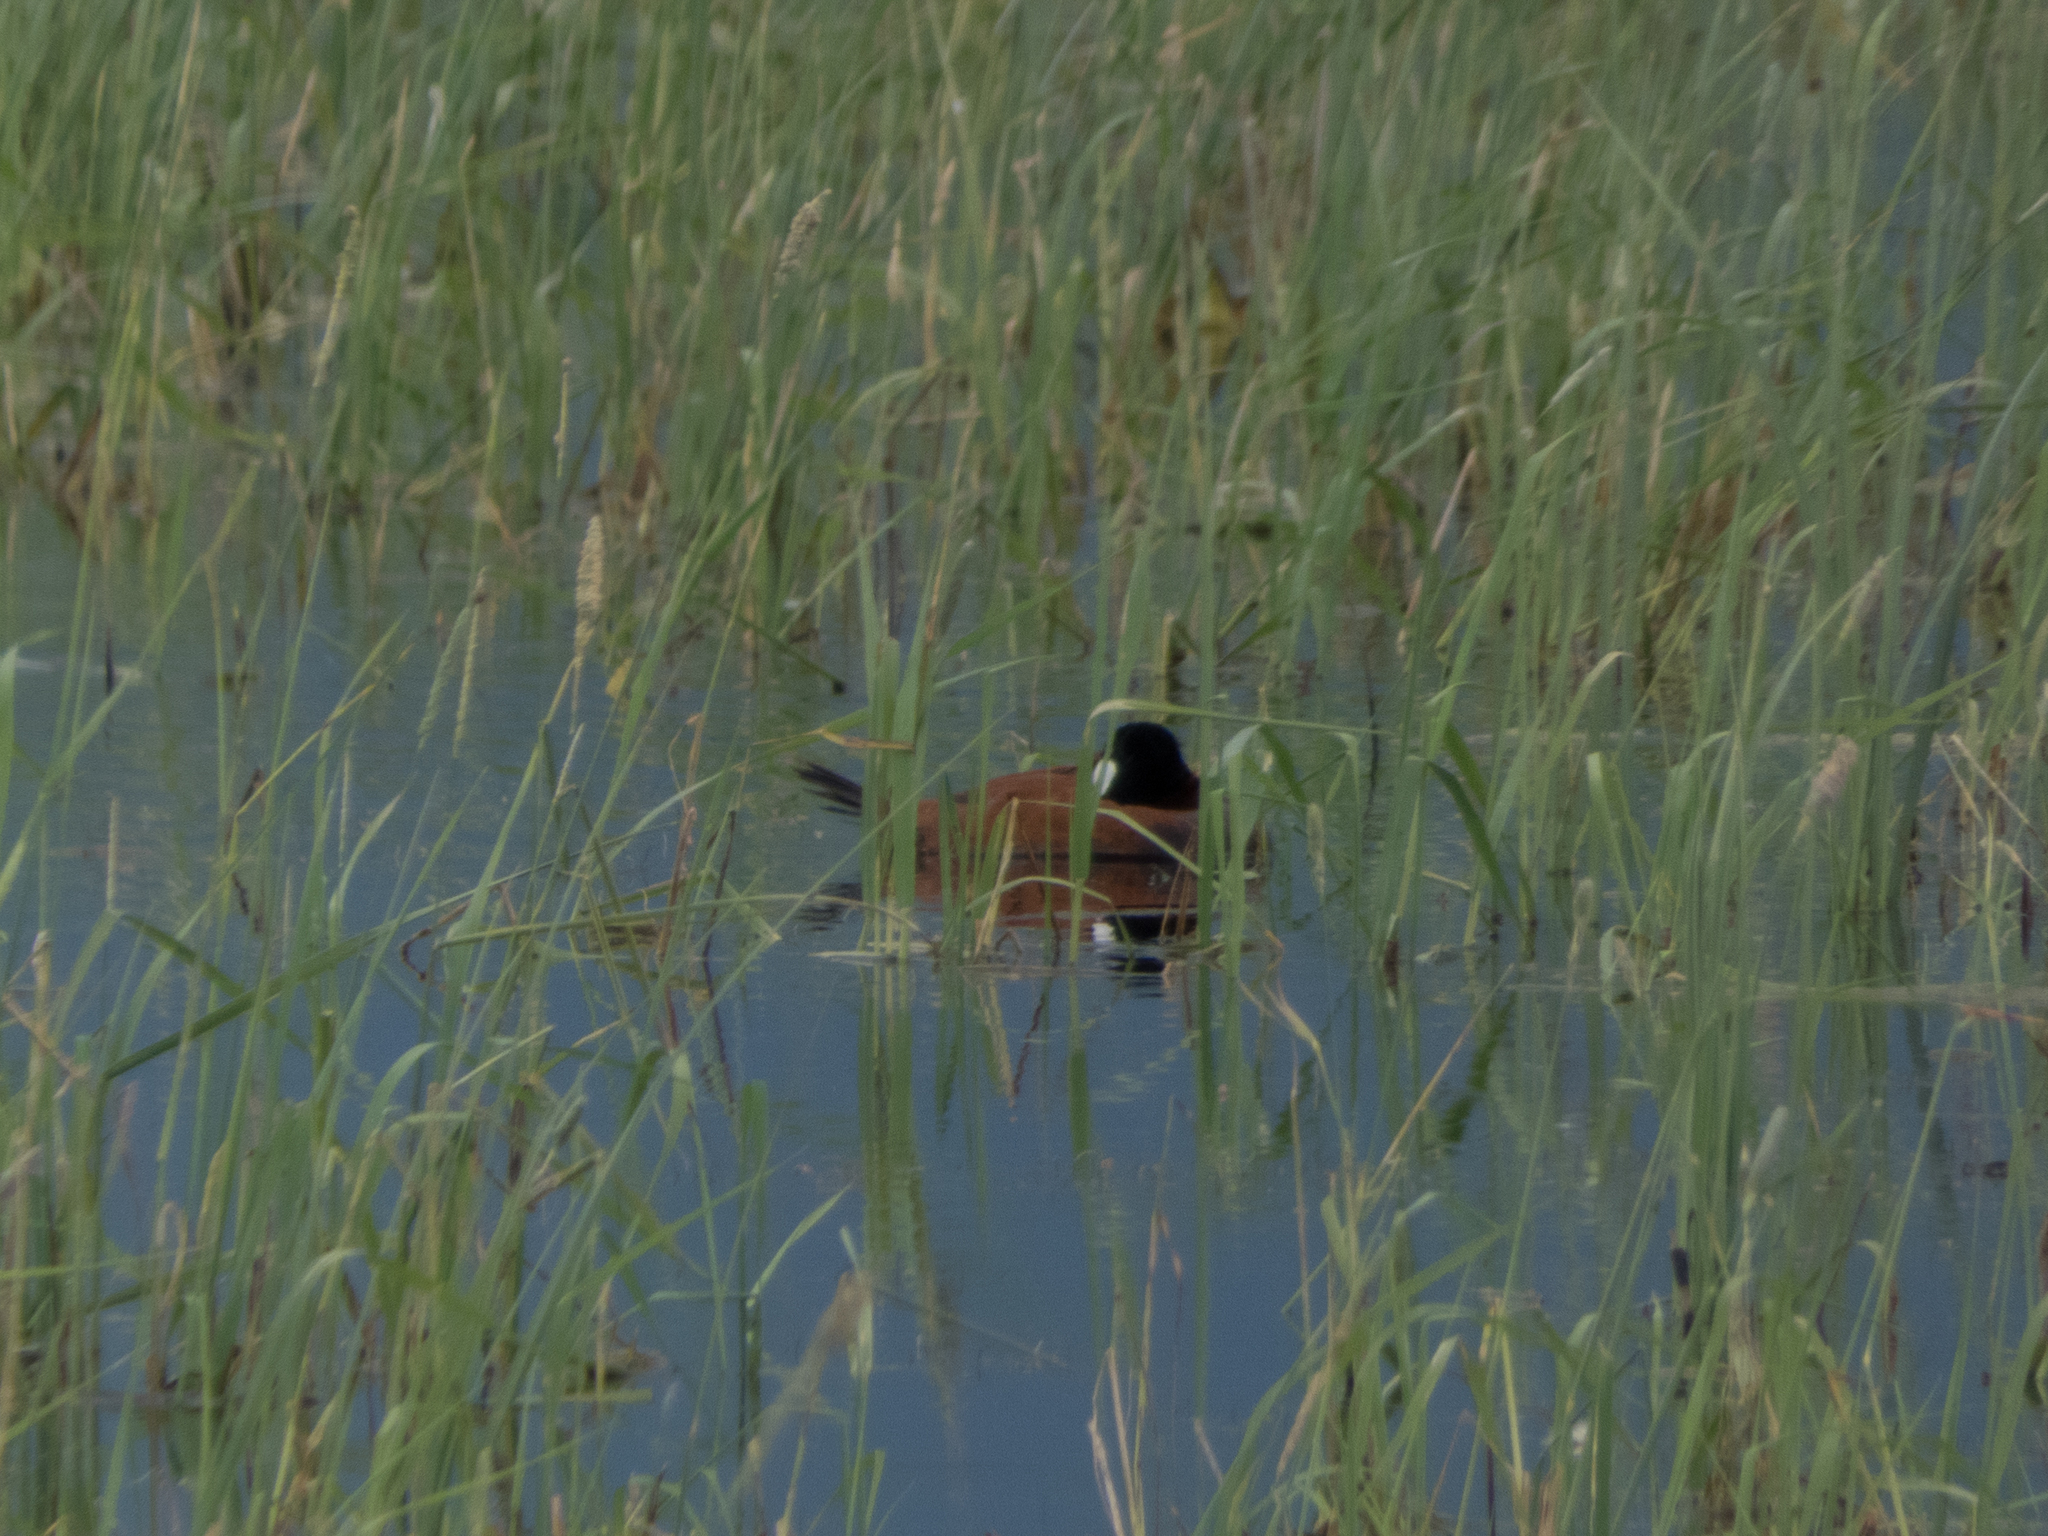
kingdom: Animalia
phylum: Chordata
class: Aves
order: Anseriformes
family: Anatidae
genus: Oxyura
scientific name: Oxyura jamaicensis
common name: Ruddy duck
